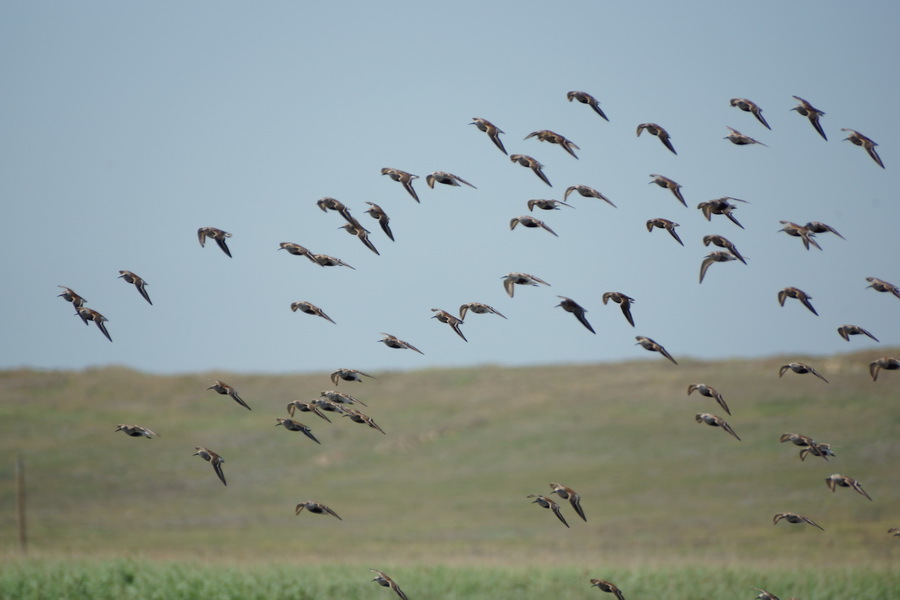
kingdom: Animalia
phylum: Chordata
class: Aves
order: Charadriiformes
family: Scolopacidae
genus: Calidris
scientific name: Calidris alpina
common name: Dunlin
